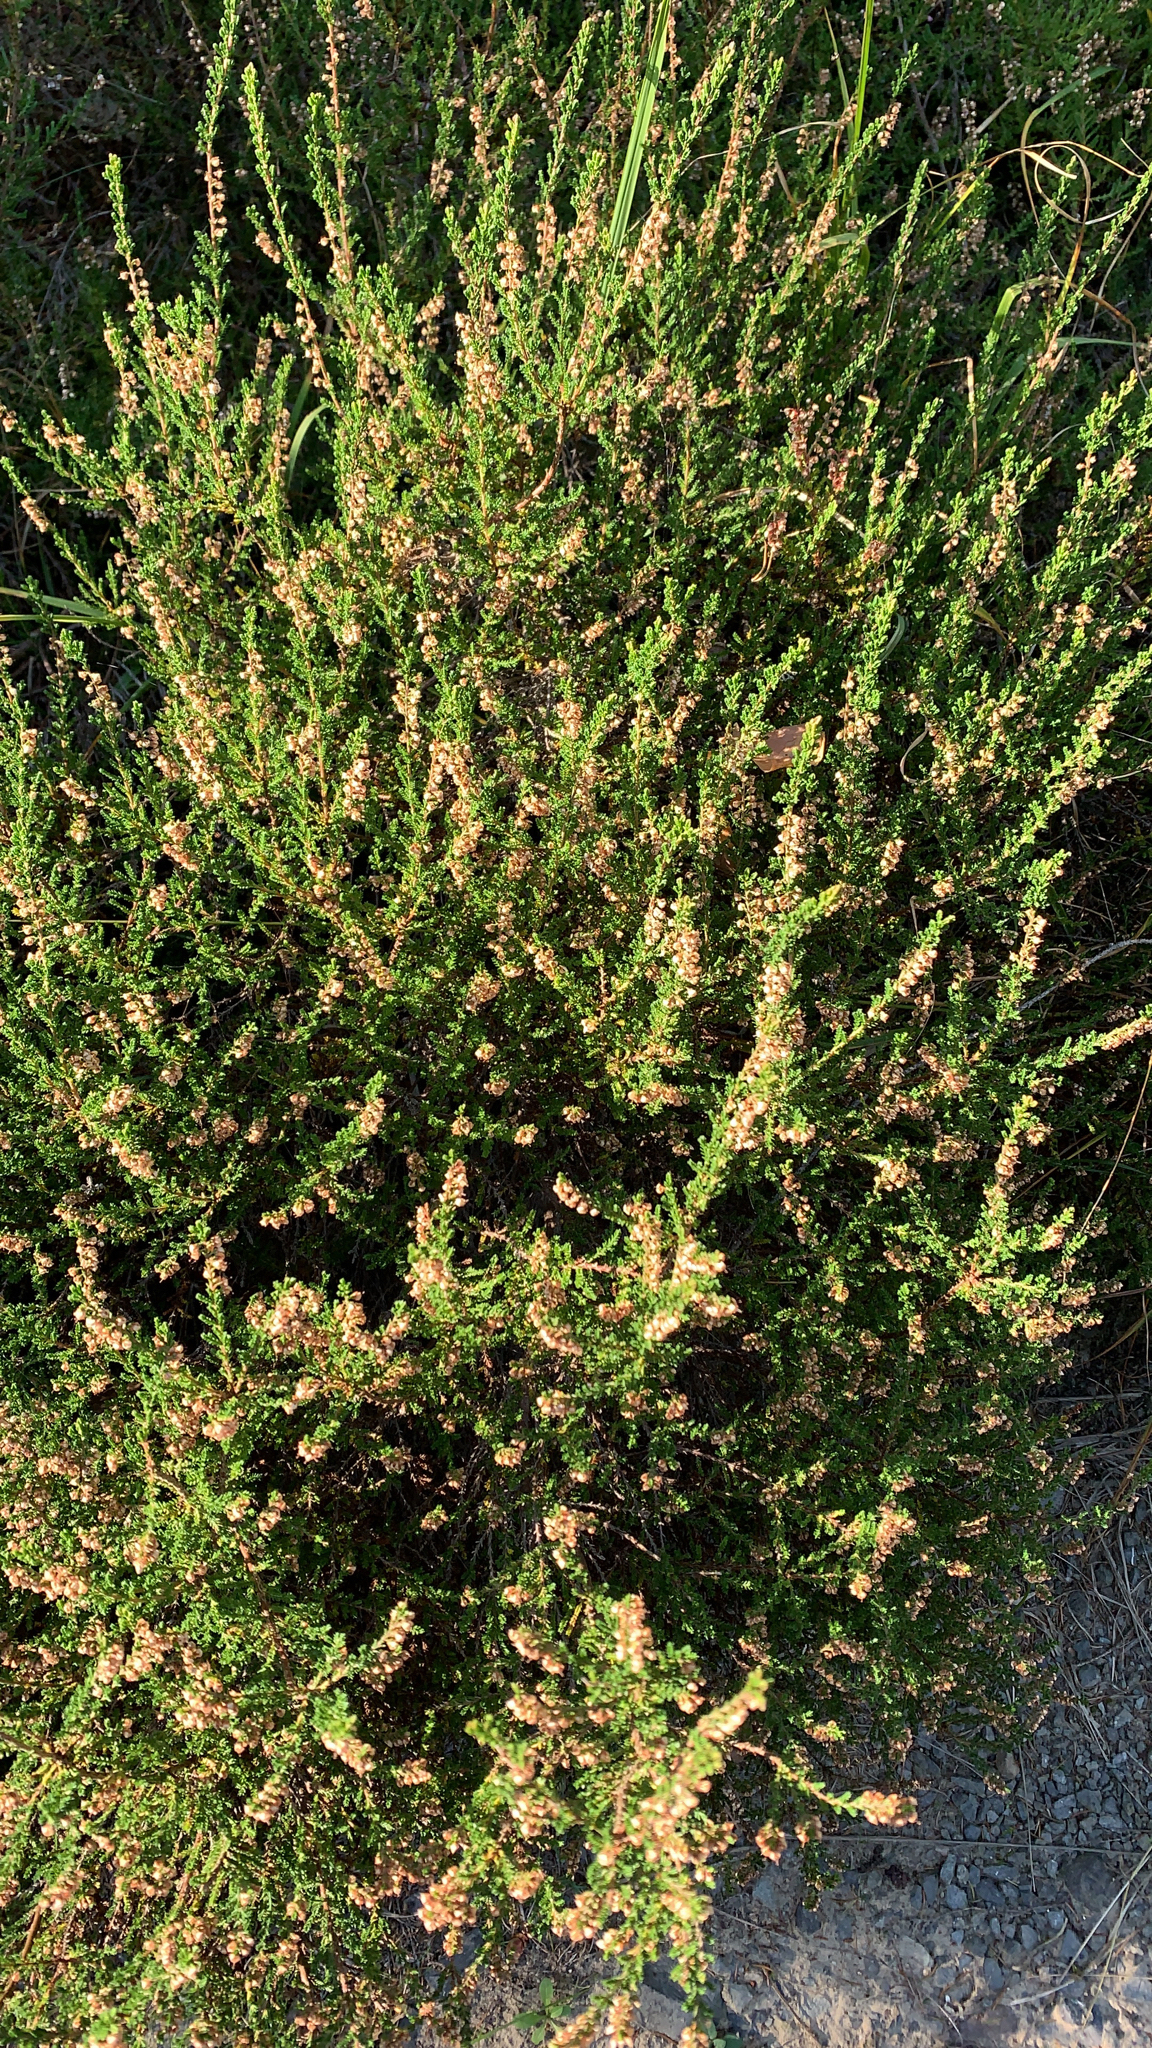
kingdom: Plantae
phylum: Tracheophyta
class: Magnoliopsida
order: Ericales
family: Ericaceae
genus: Calluna
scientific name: Calluna vulgaris
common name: Heather
